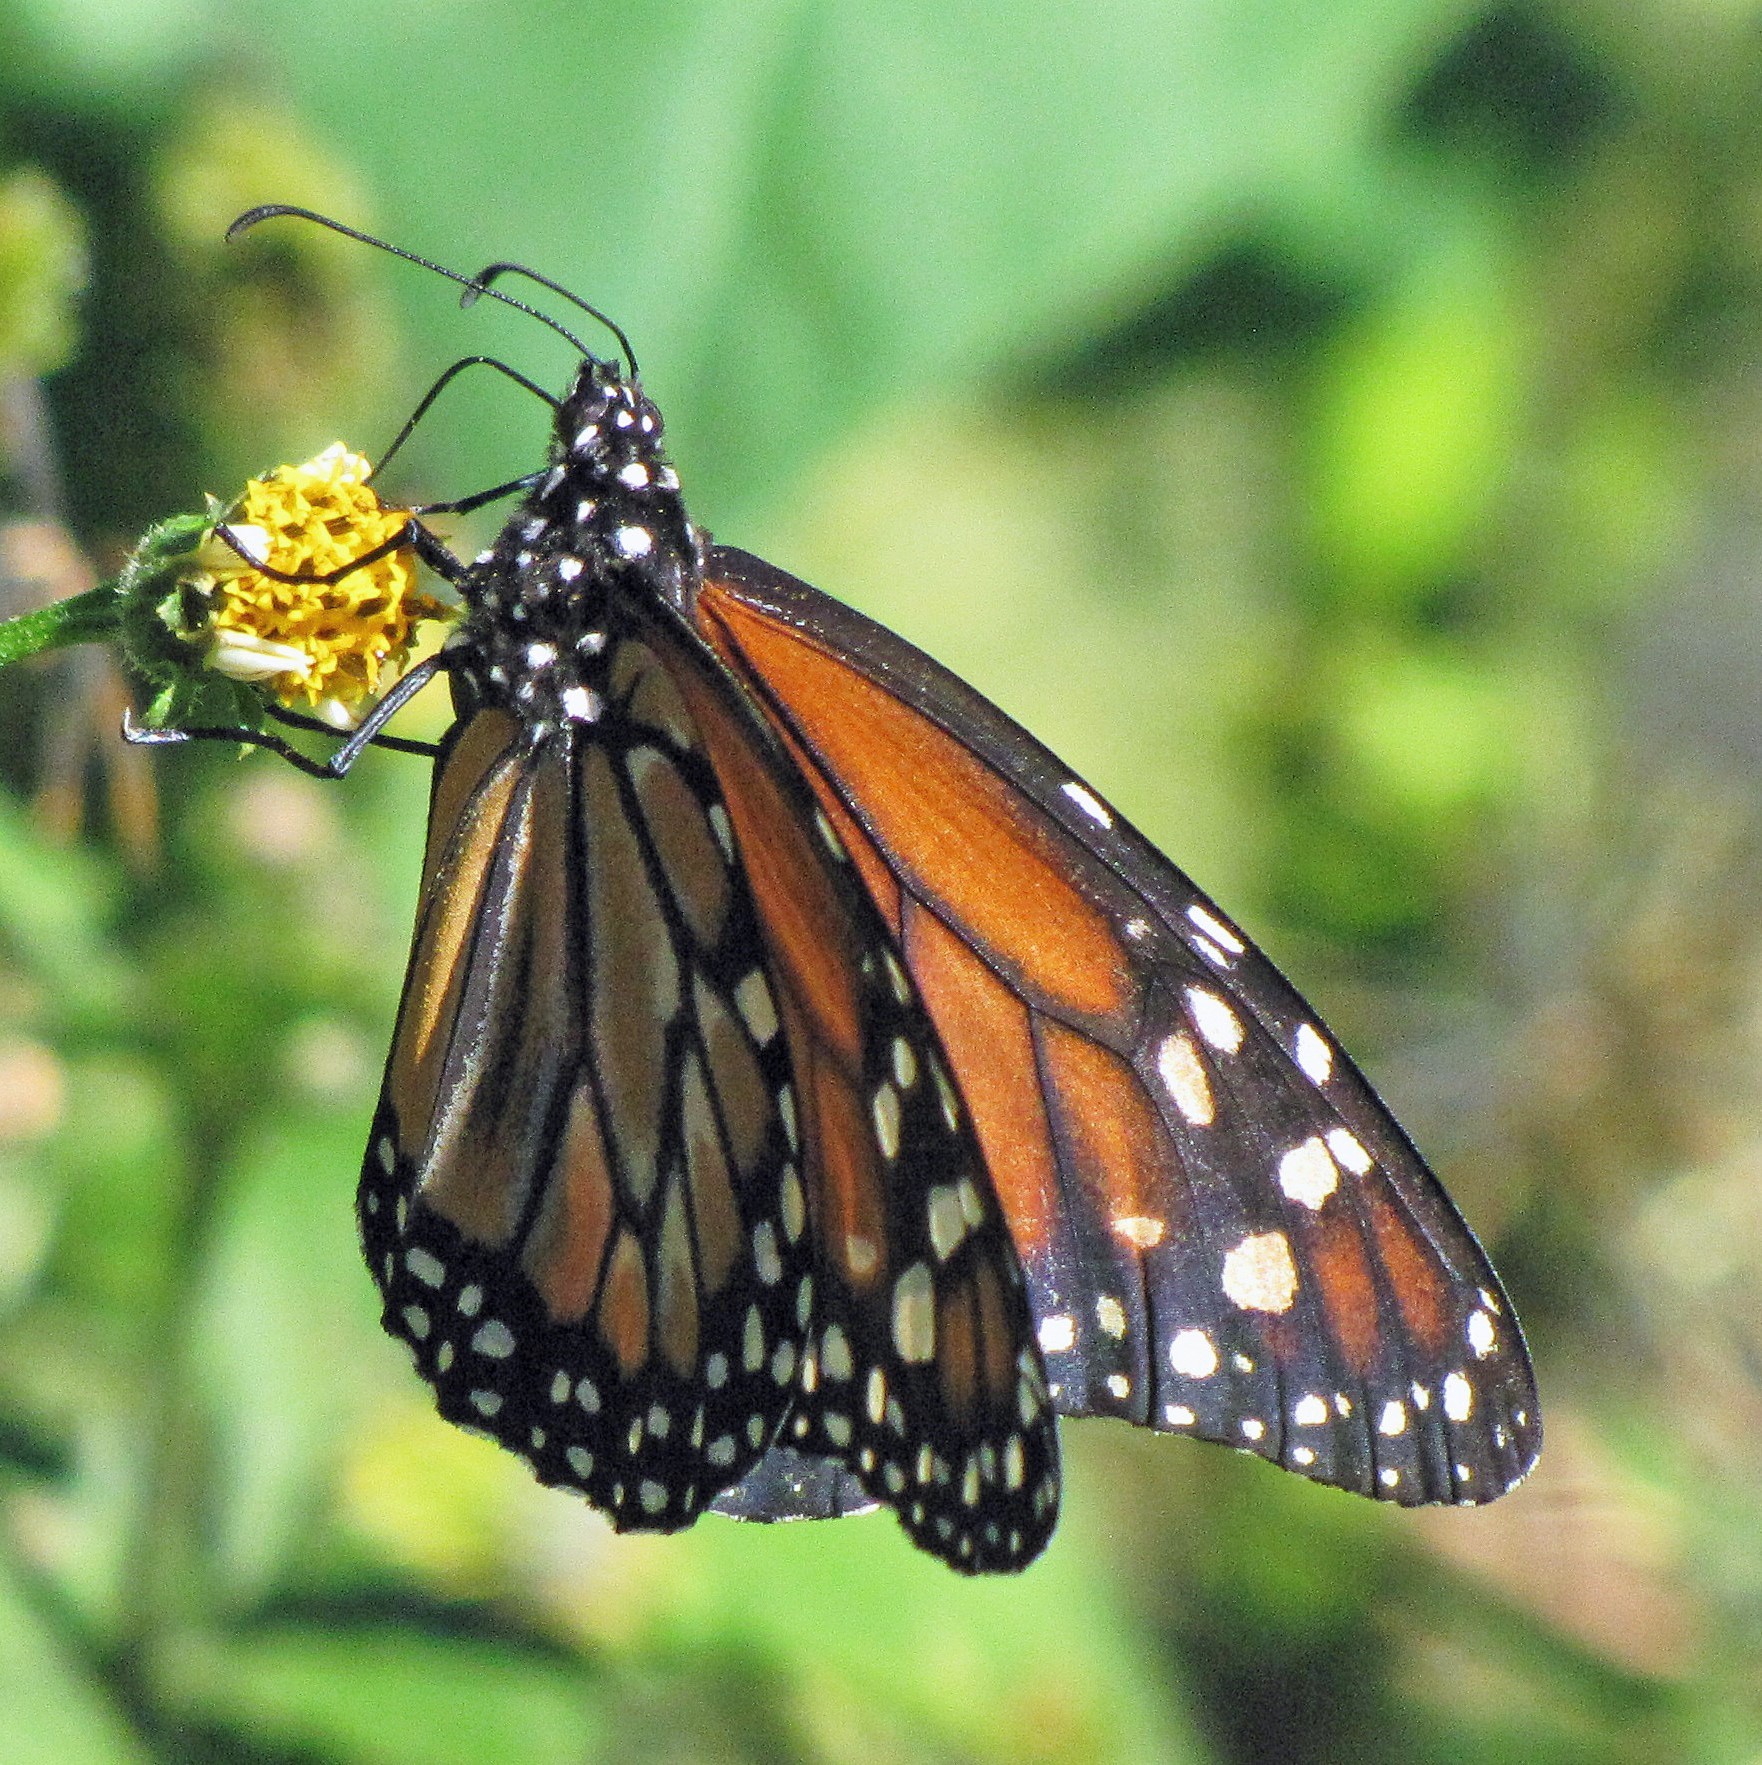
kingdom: Animalia
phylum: Arthropoda
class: Insecta
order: Lepidoptera
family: Nymphalidae
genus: Danaus
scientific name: Danaus erippus
